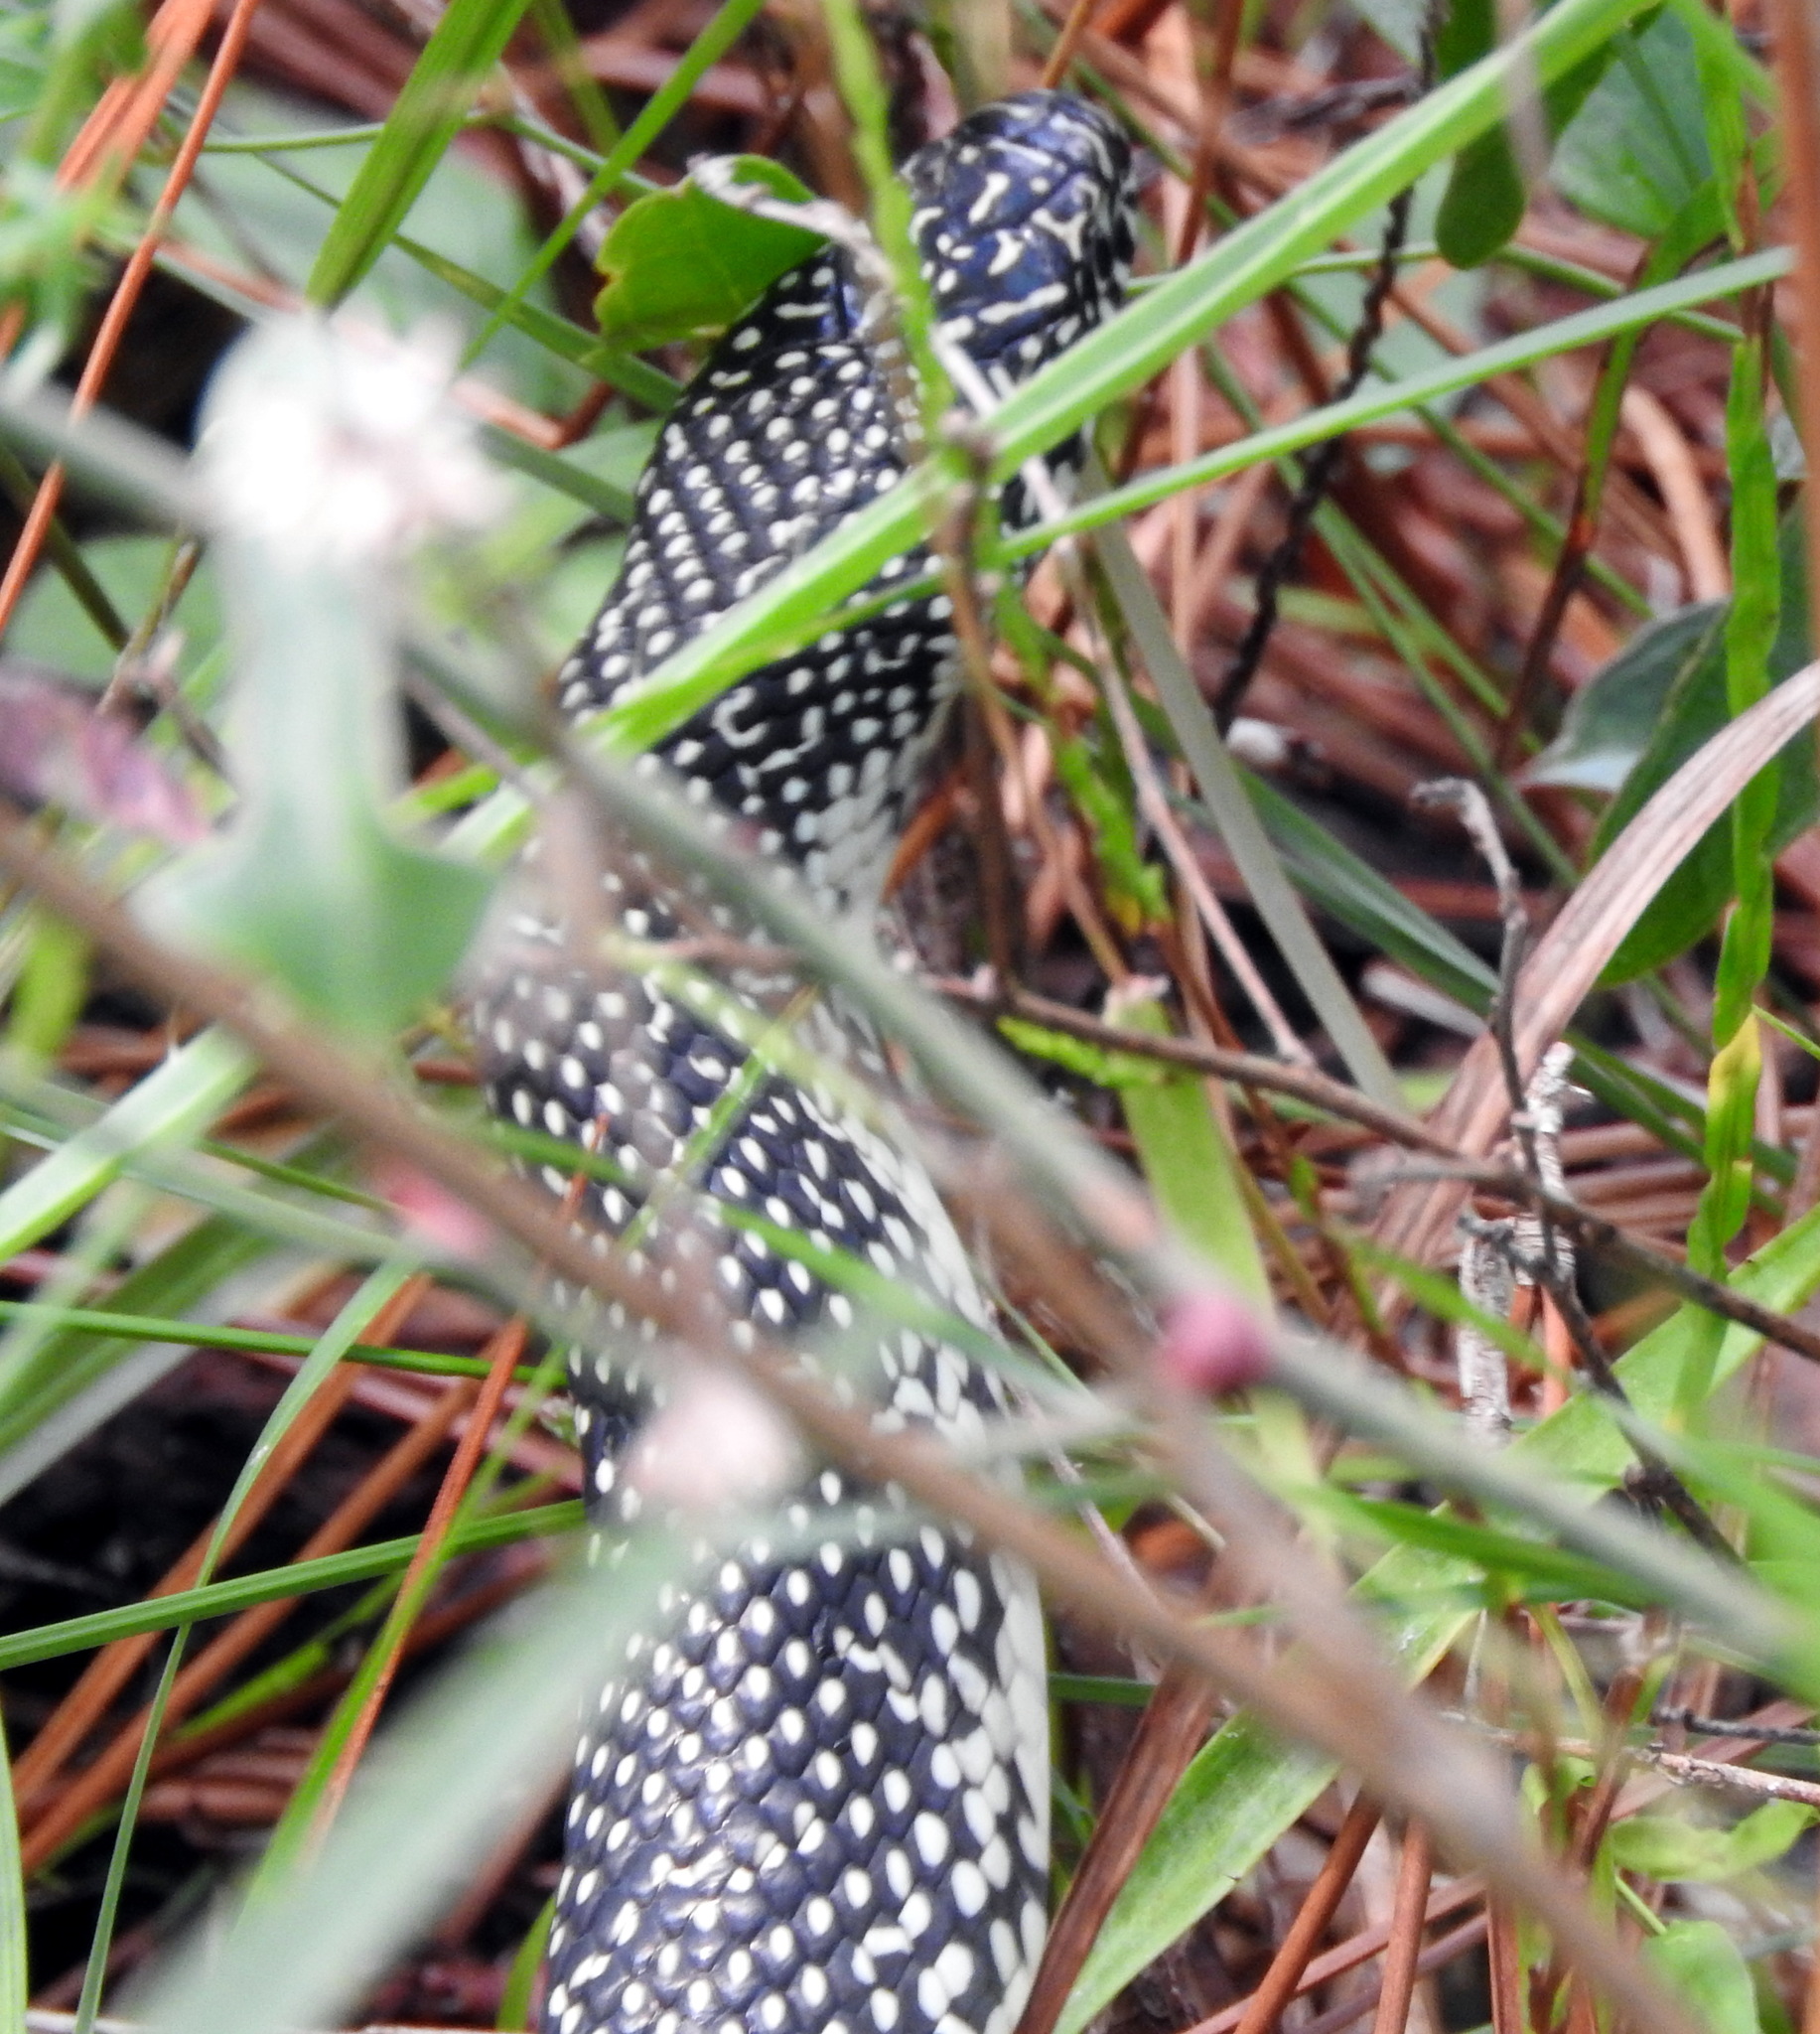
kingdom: Animalia
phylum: Chordata
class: Squamata
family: Colubridae
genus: Lampropeltis
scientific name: Lampropeltis holbrooki
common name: Speckled kingsnake
